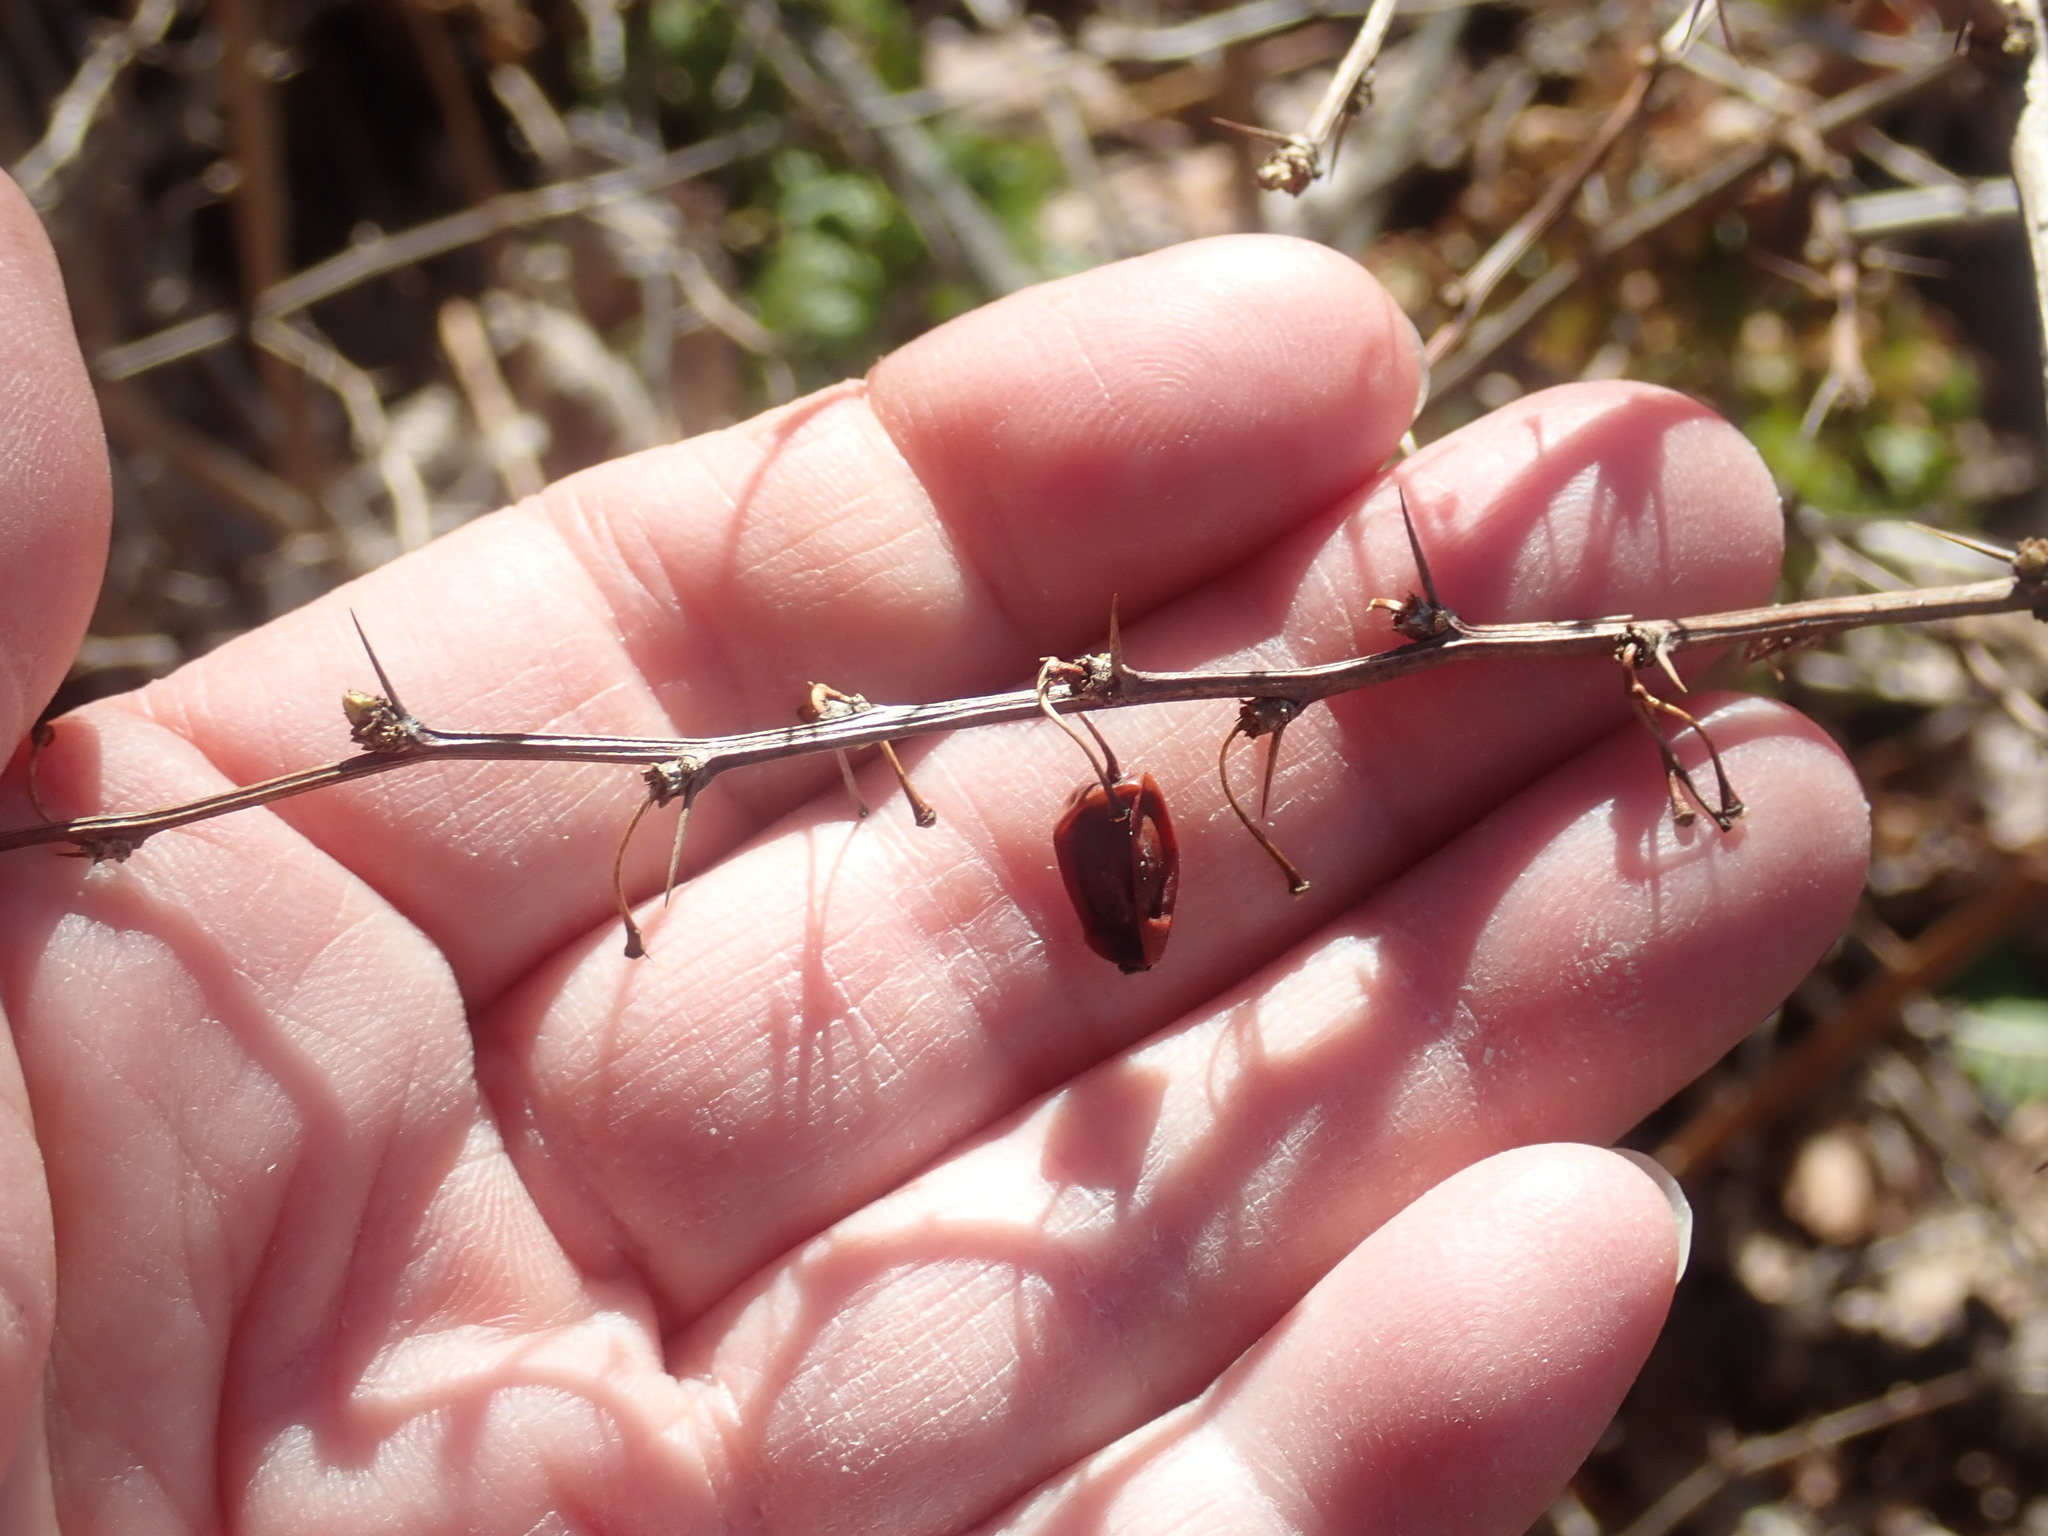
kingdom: Plantae
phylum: Tracheophyta
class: Magnoliopsida
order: Ranunculales
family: Berberidaceae
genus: Berberis
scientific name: Berberis thunbergii
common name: Japanese barberry
